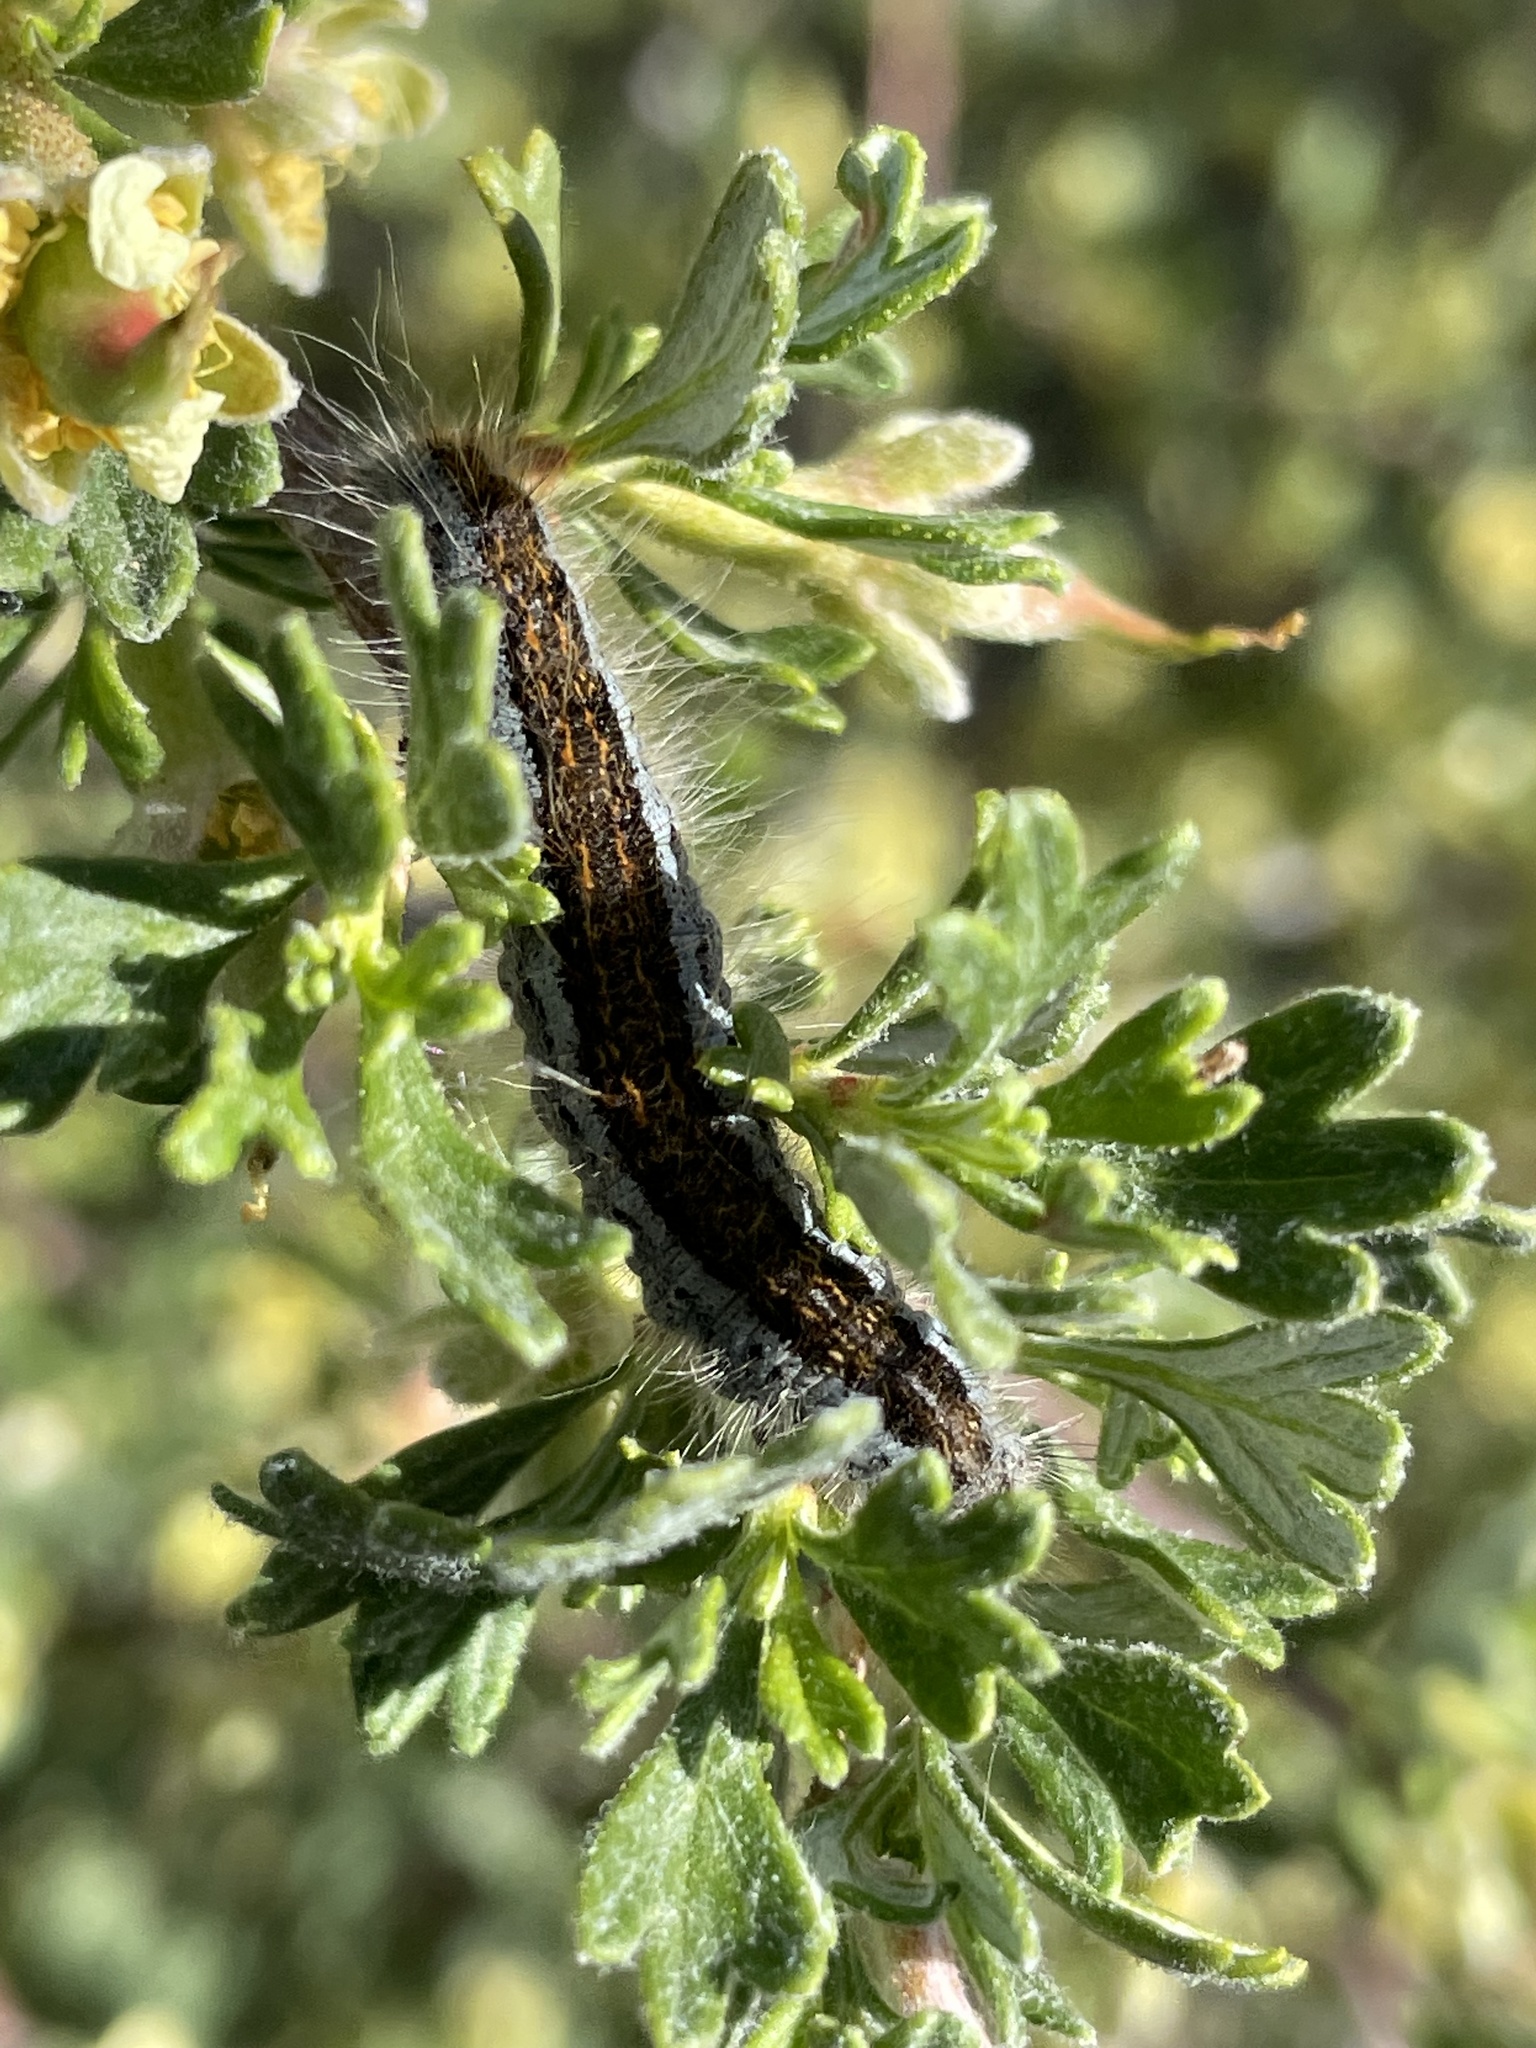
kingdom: Animalia
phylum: Arthropoda
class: Insecta
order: Lepidoptera
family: Lasiocampidae
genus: Malacosoma
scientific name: Malacosoma californica
